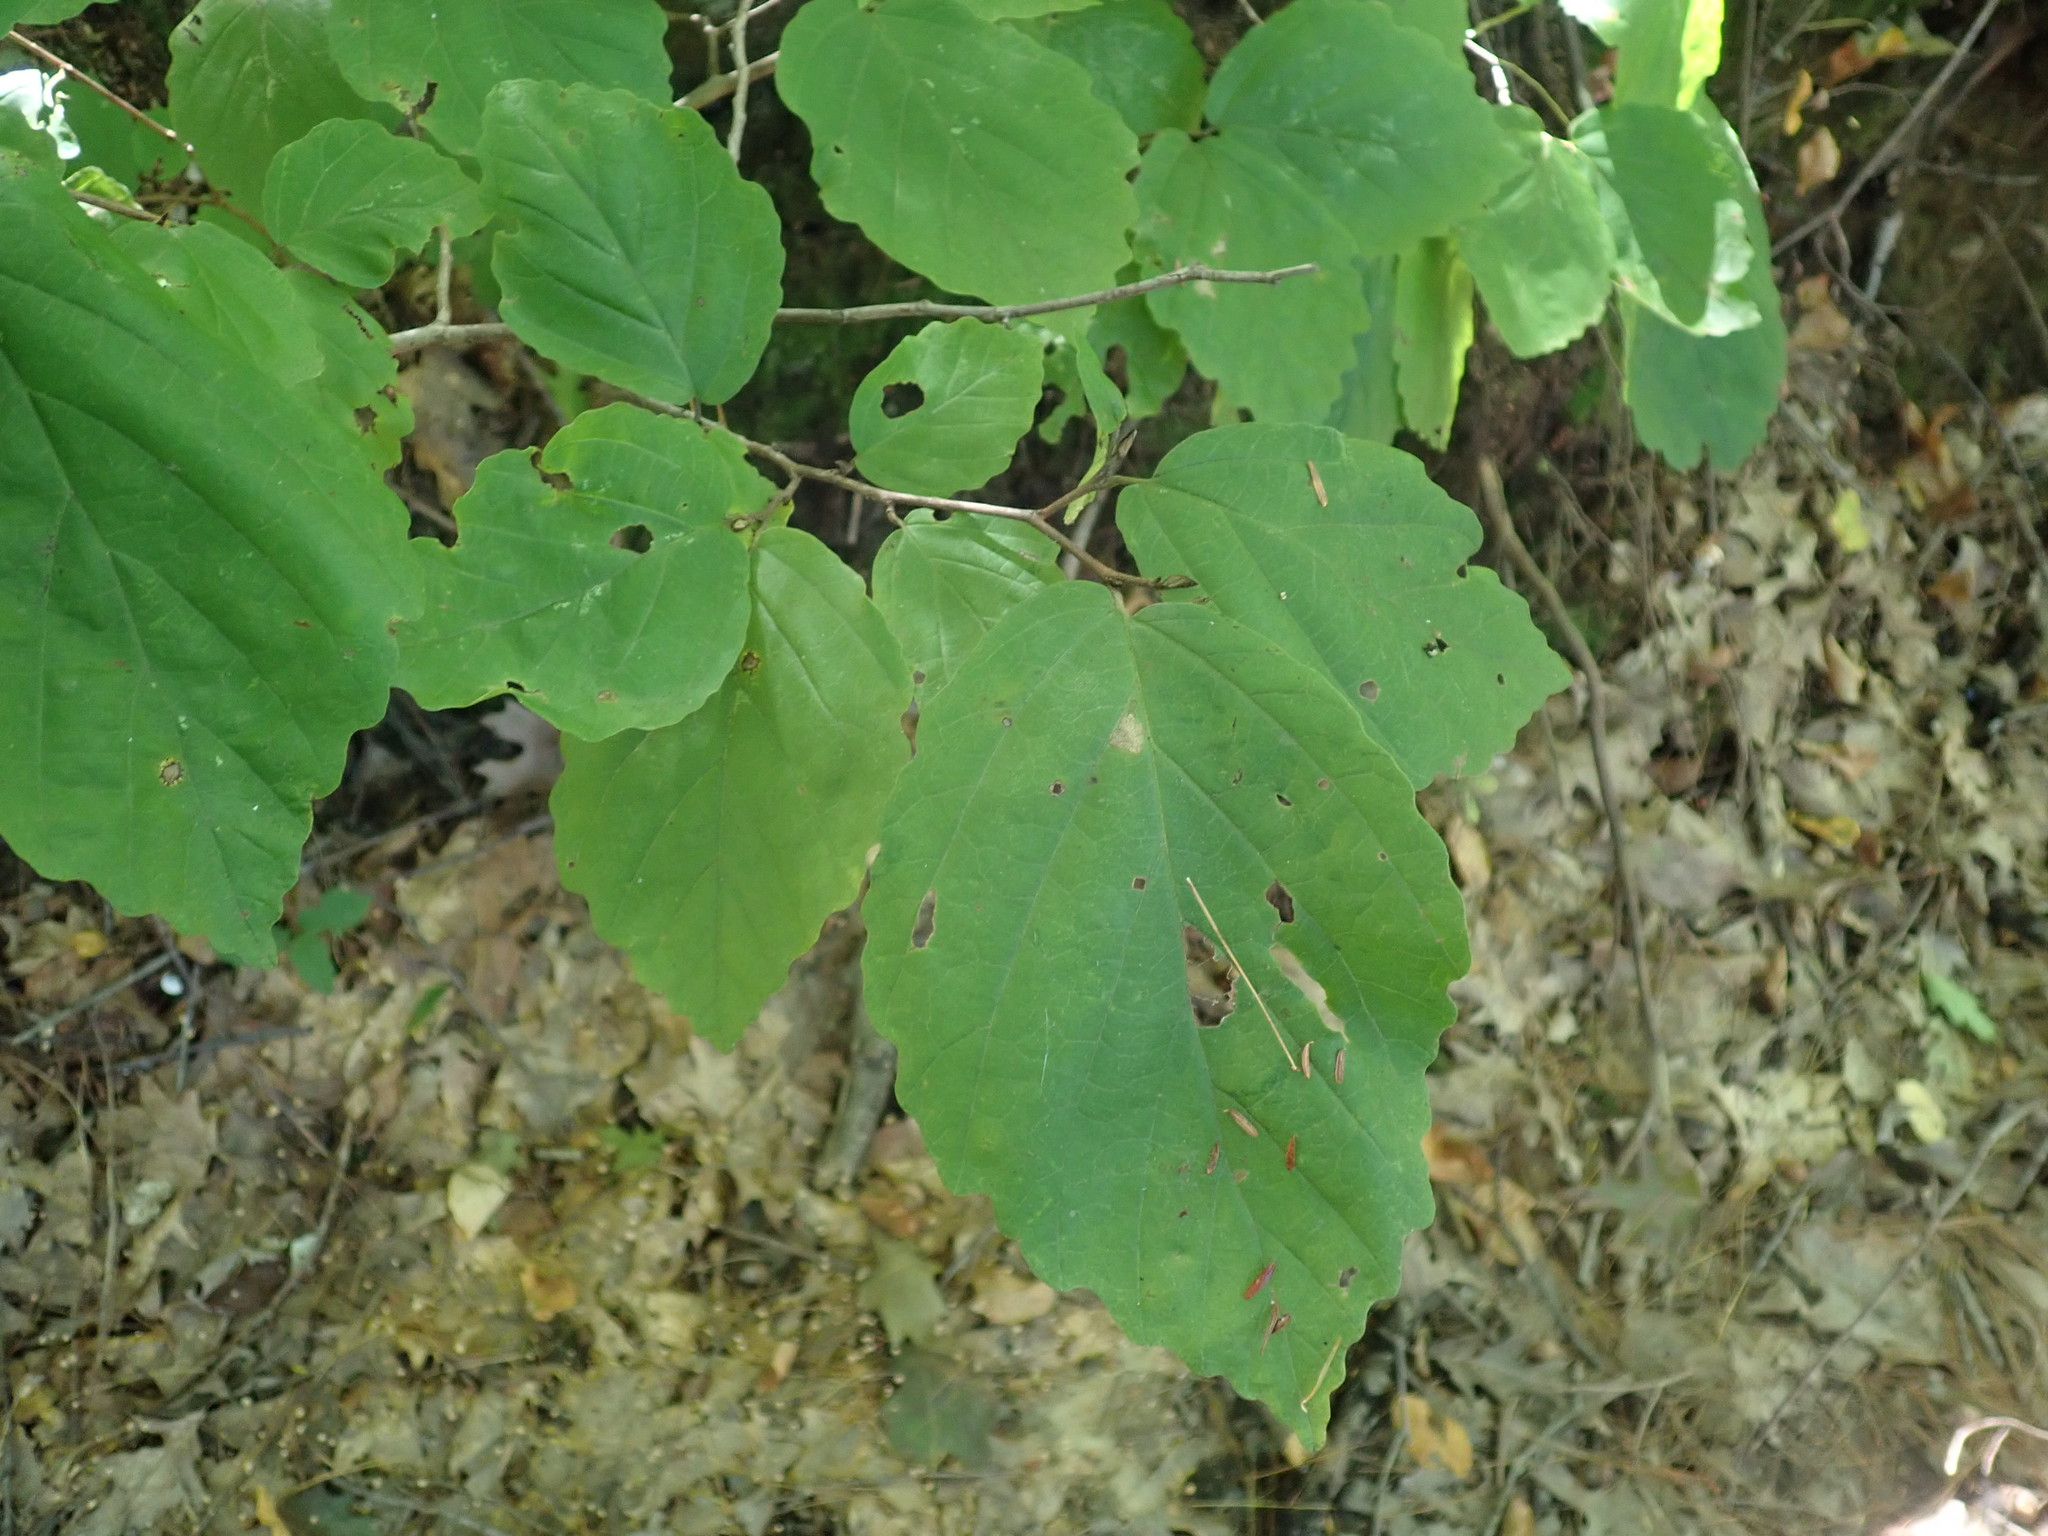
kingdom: Plantae
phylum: Tracheophyta
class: Magnoliopsida
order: Saxifragales
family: Hamamelidaceae
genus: Hamamelis
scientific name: Hamamelis virginiana
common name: Witch-hazel
